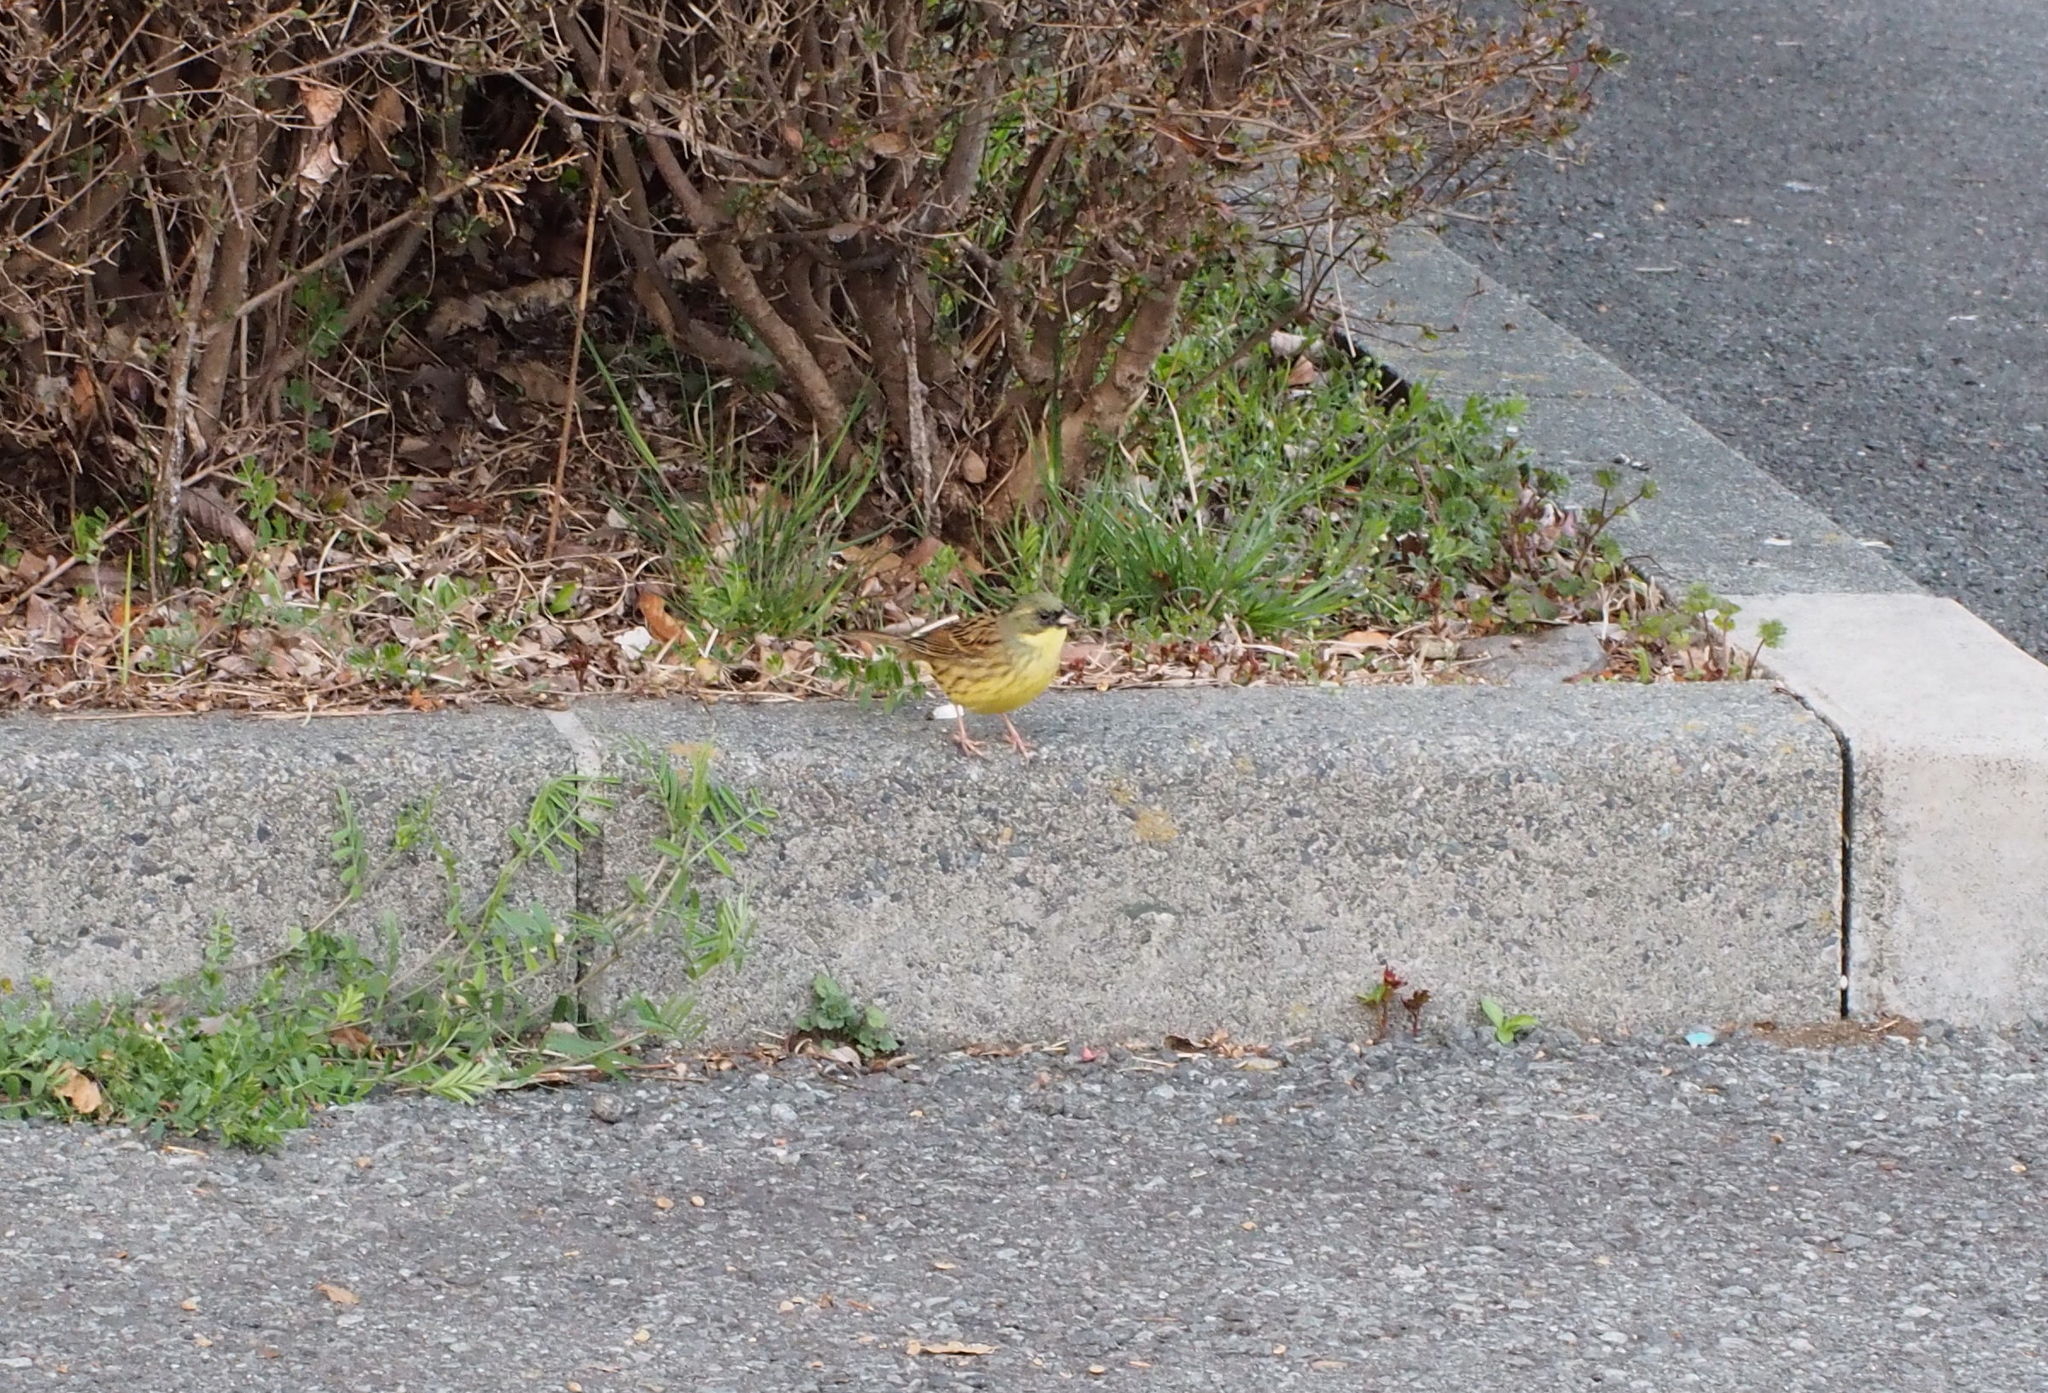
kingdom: Animalia
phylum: Chordata
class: Aves
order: Passeriformes
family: Emberizidae
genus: Emberiza
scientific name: Emberiza personata
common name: Masked bunting
